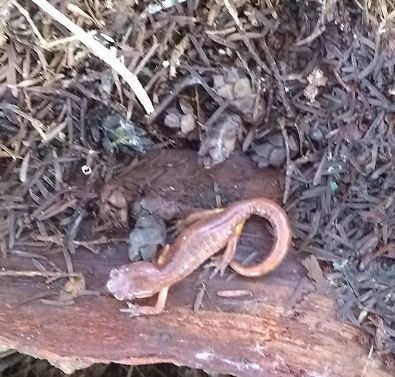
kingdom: Animalia
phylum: Chordata
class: Amphibia
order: Caudata
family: Plethodontidae
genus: Ensatina
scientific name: Ensatina eschscholtzii
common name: Ensatina
